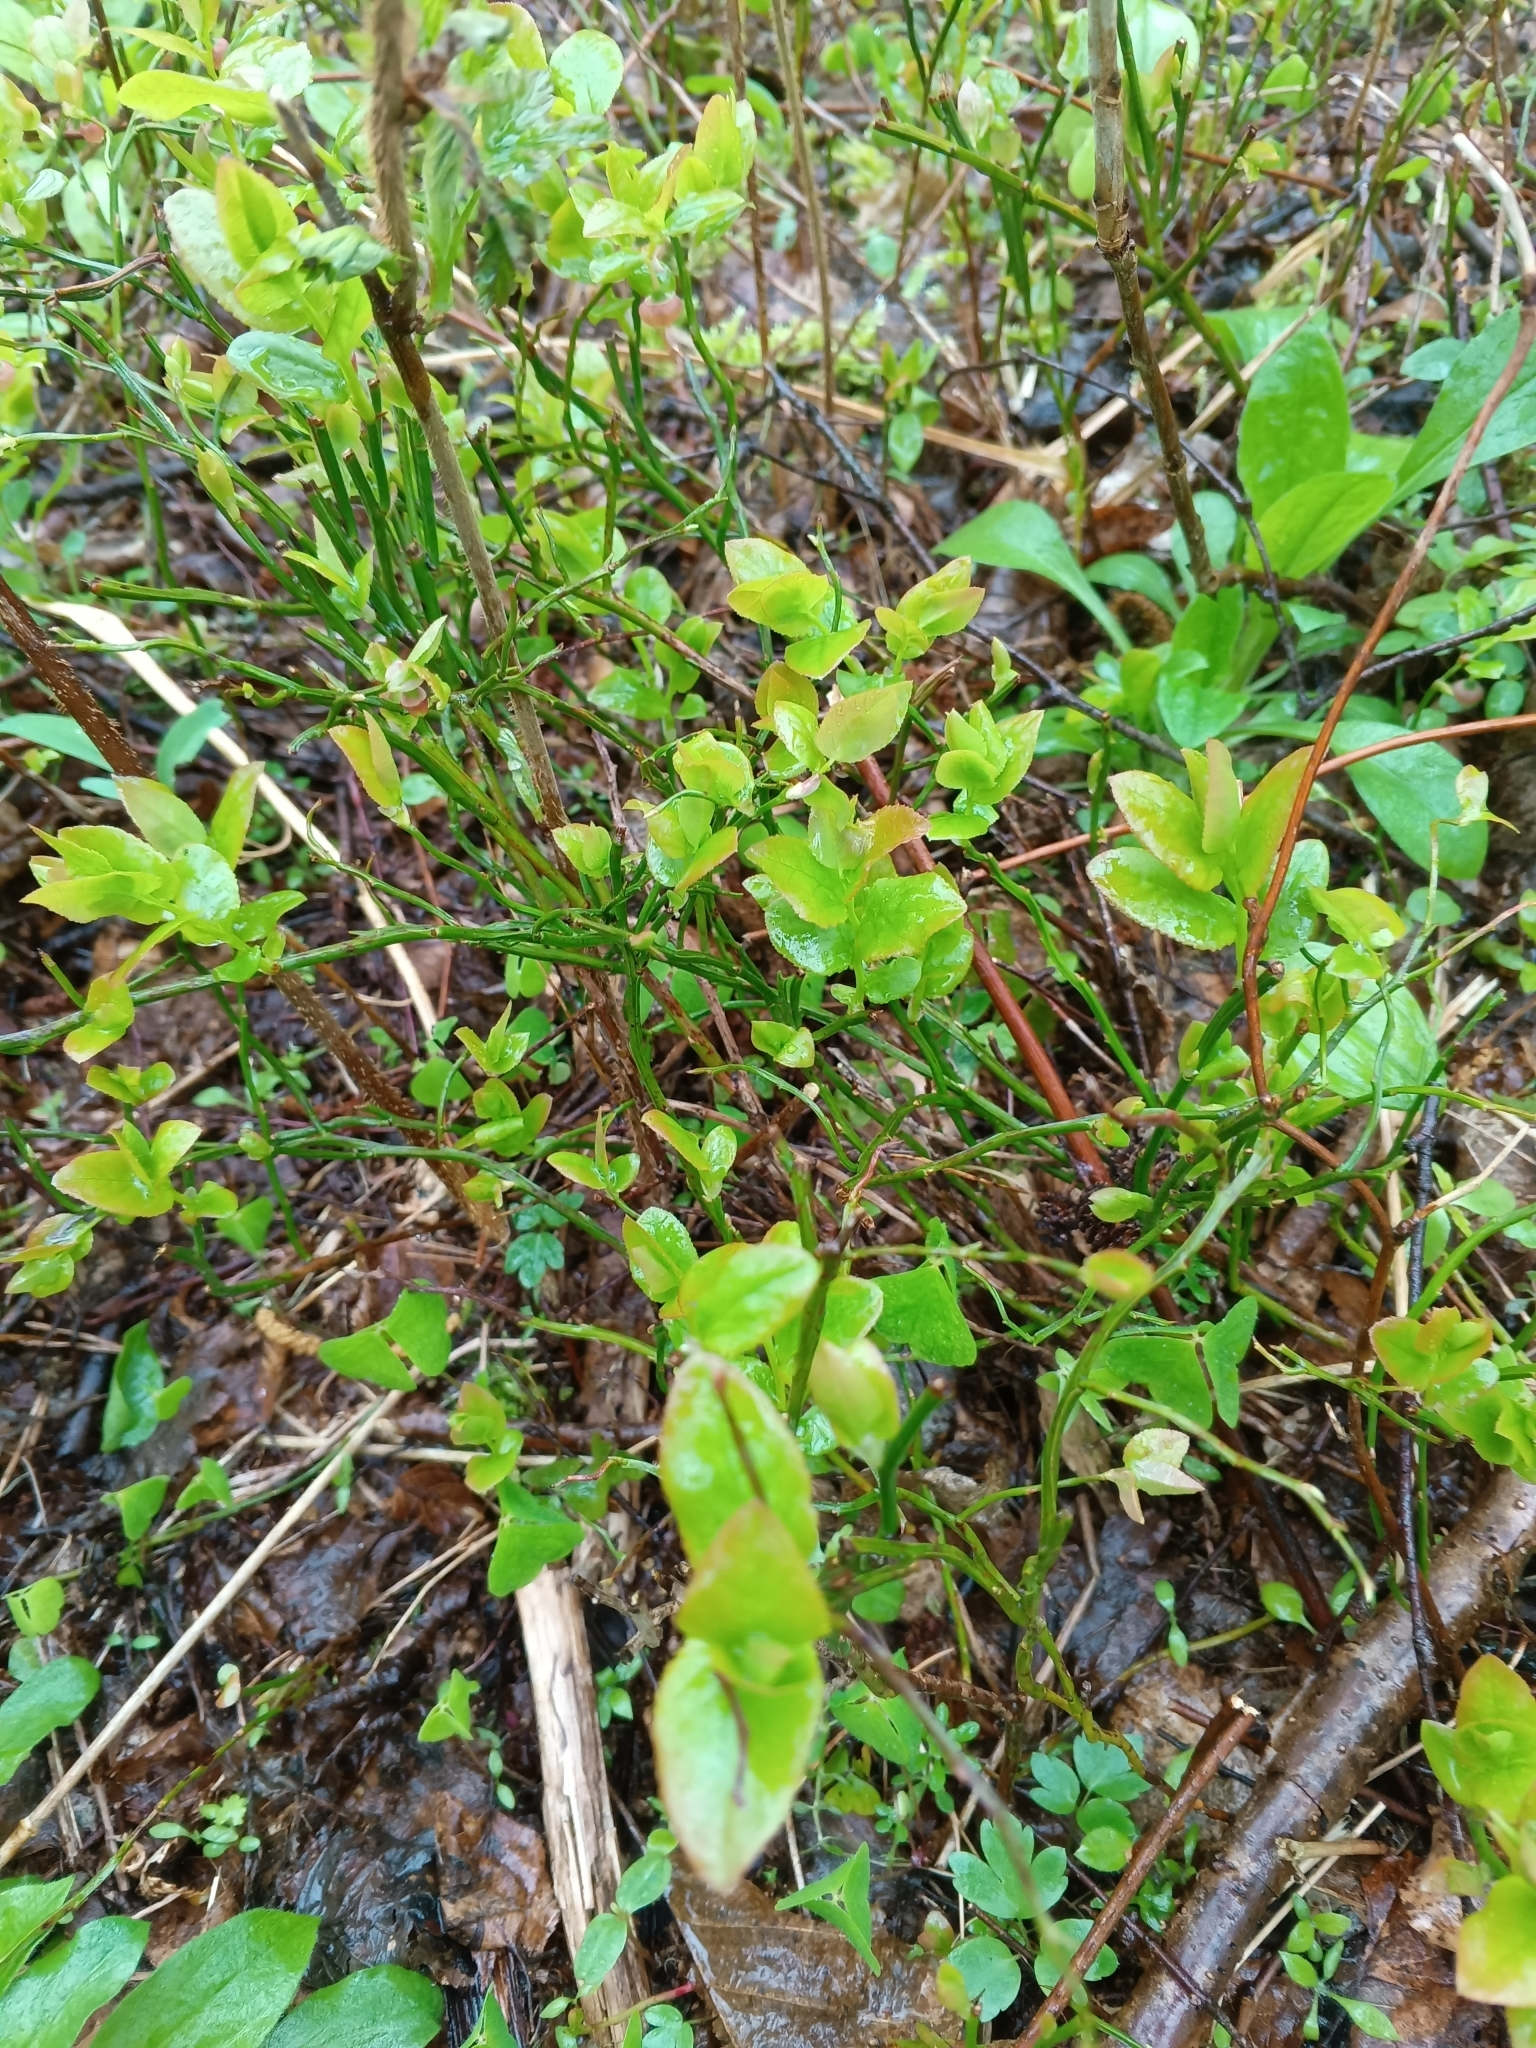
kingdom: Plantae
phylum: Tracheophyta
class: Magnoliopsida
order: Ericales
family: Ericaceae
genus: Vaccinium
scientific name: Vaccinium myrtillus
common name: Bilberry
